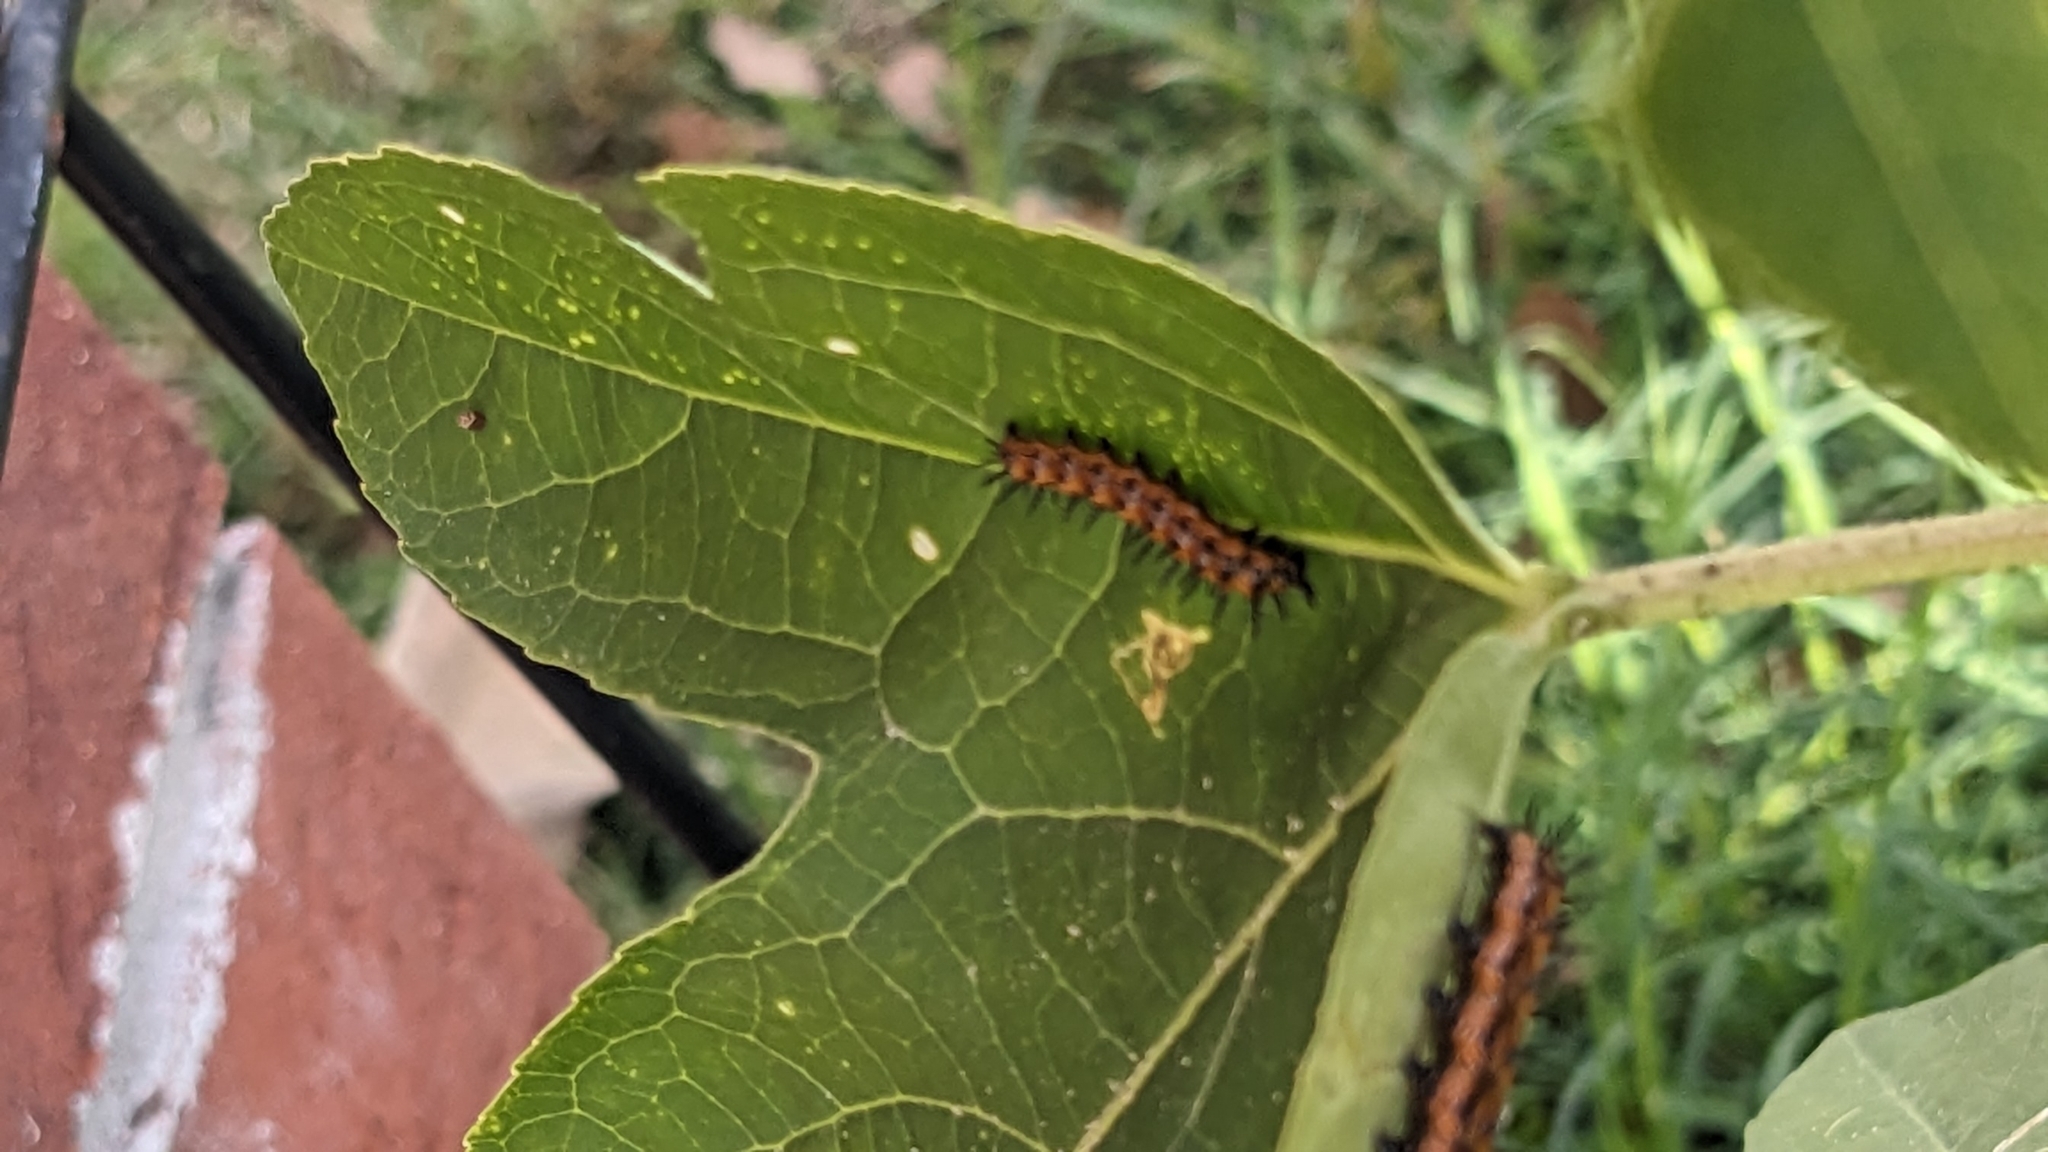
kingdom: Animalia
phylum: Arthropoda
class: Insecta
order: Lepidoptera
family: Nymphalidae
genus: Dione
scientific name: Dione vanillae
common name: Gulf fritillary
